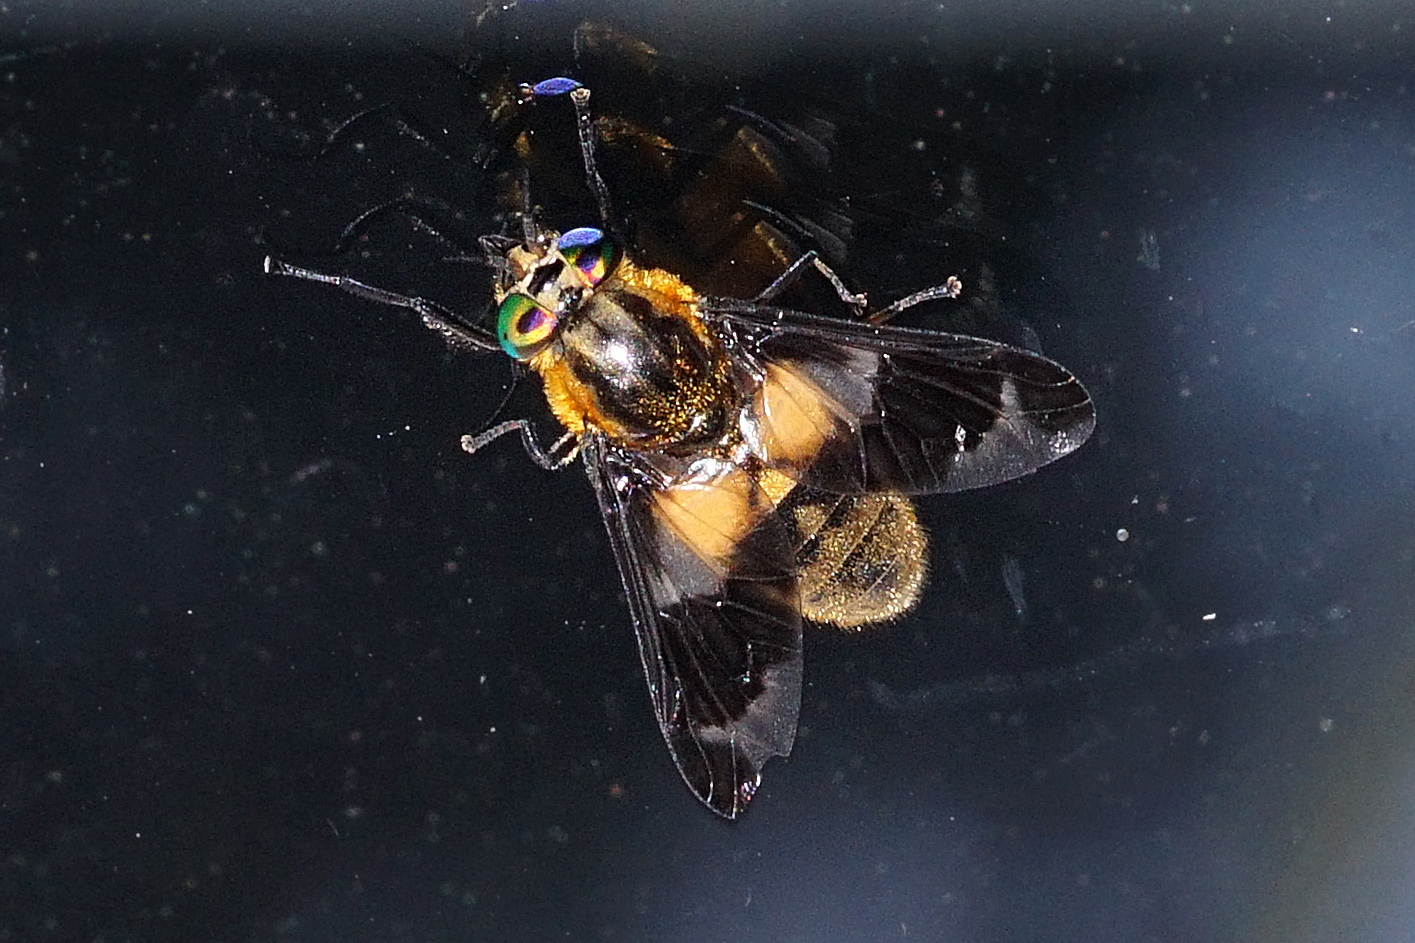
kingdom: Animalia
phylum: Arthropoda
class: Insecta
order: Diptera
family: Tabanidae
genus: Chrysops
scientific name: Chrysops caecutiens
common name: Splayed deerfly
